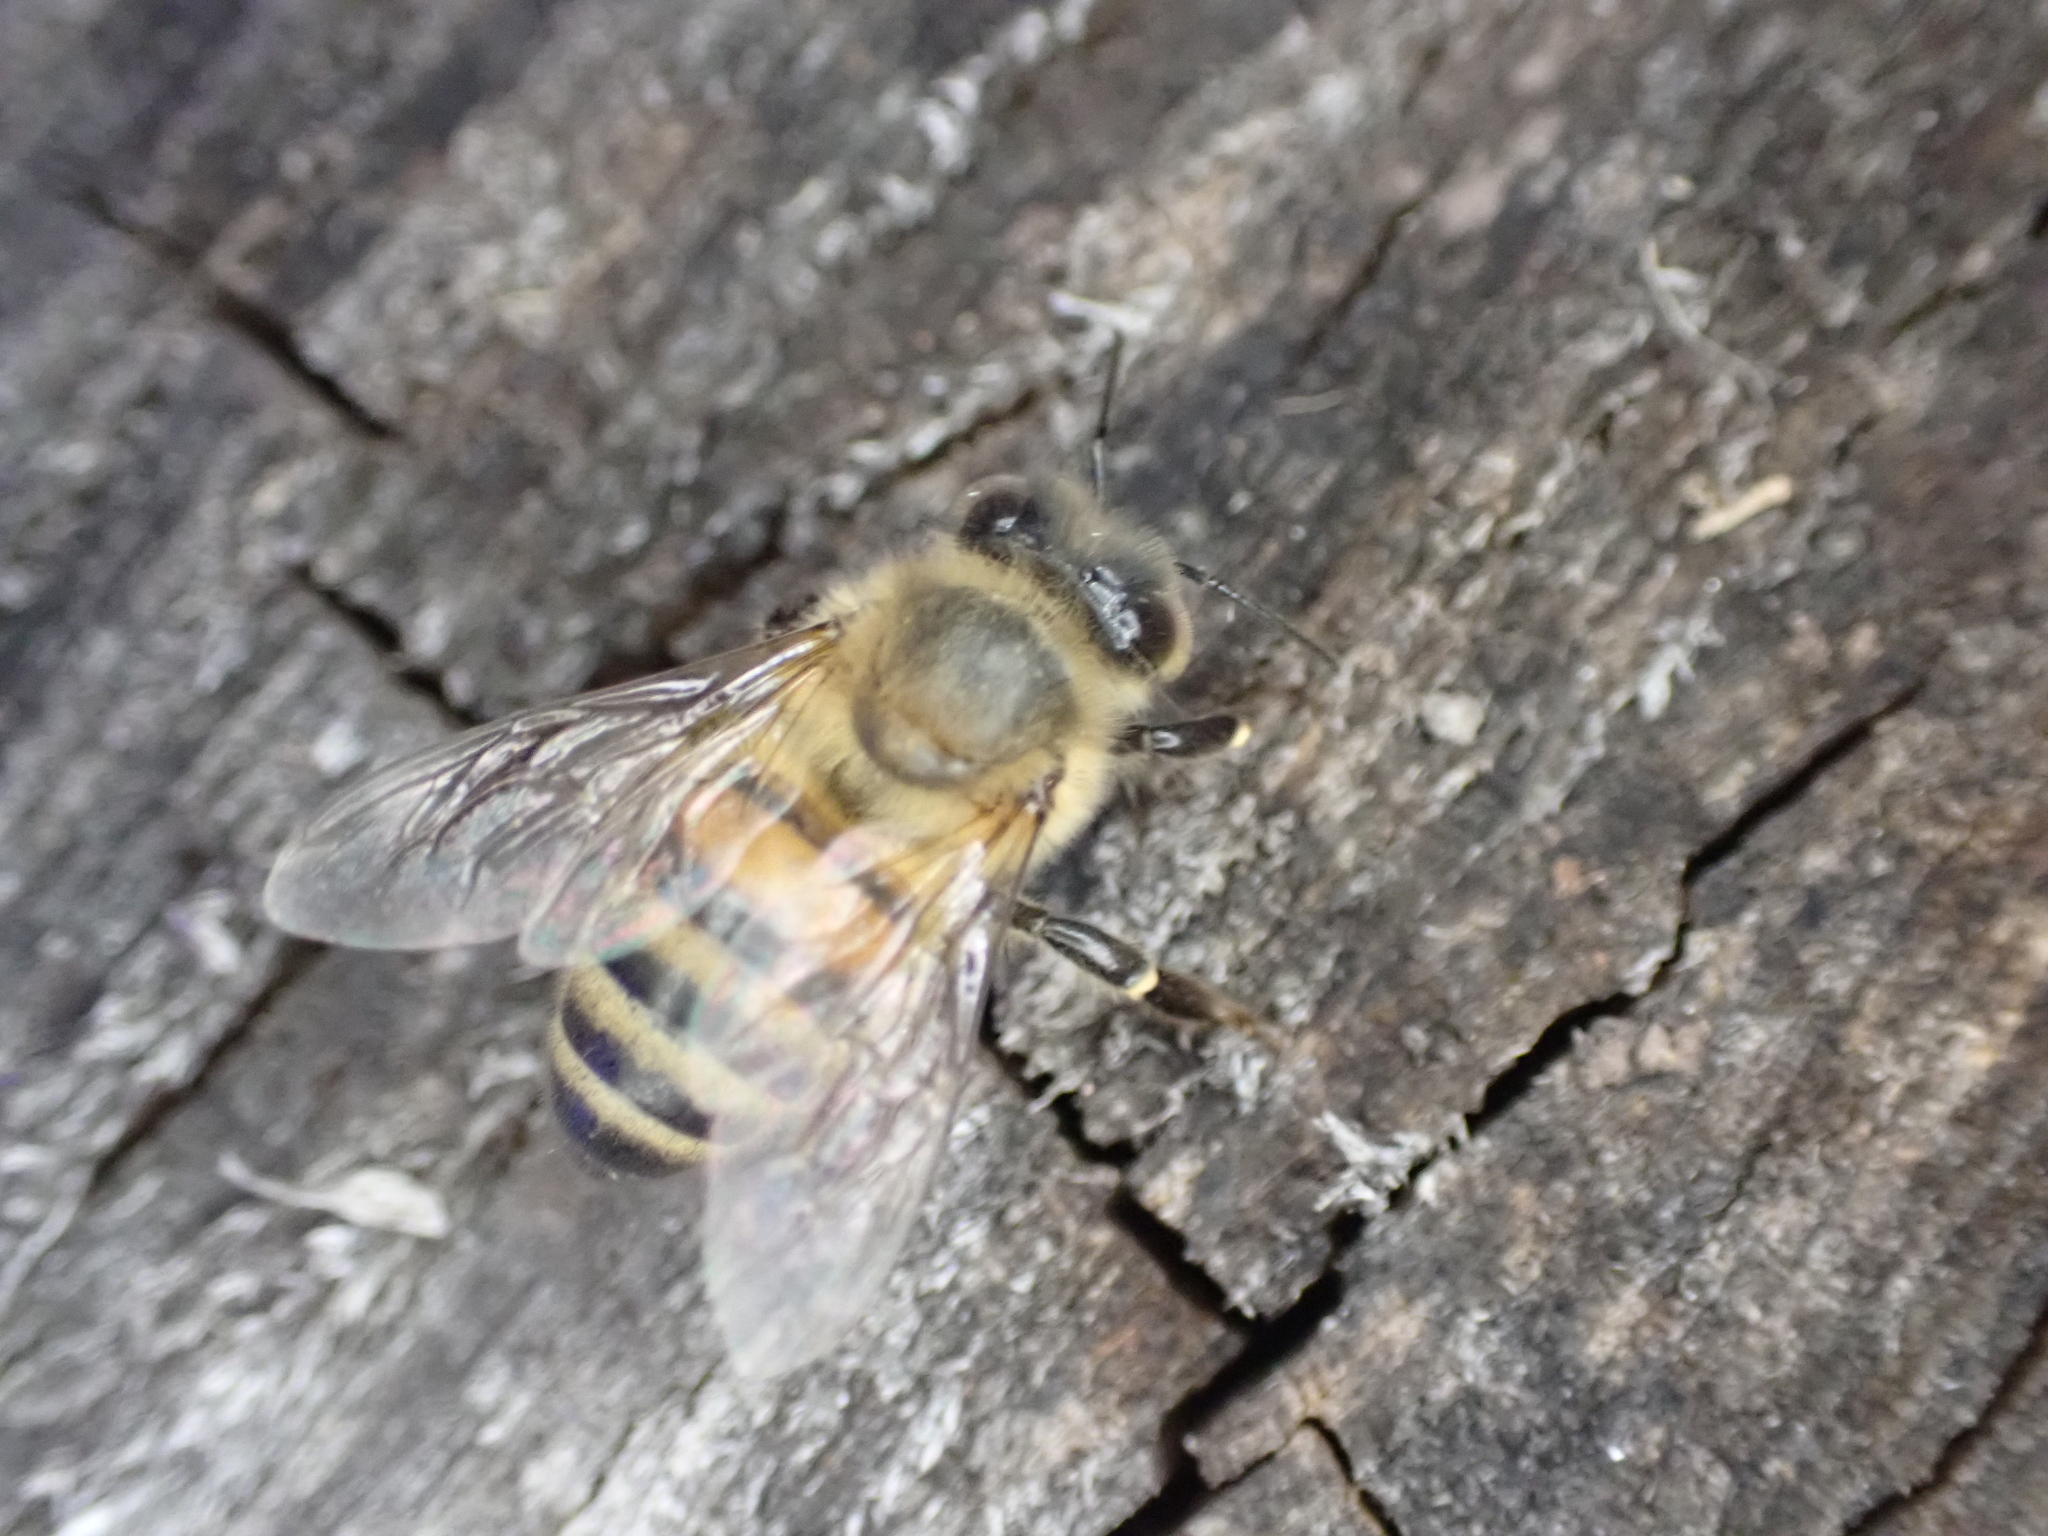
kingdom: Animalia
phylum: Arthropoda
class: Insecta
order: Hymenoptera
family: Apidae
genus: Apis
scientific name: Apis mellifera
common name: Honey bee
